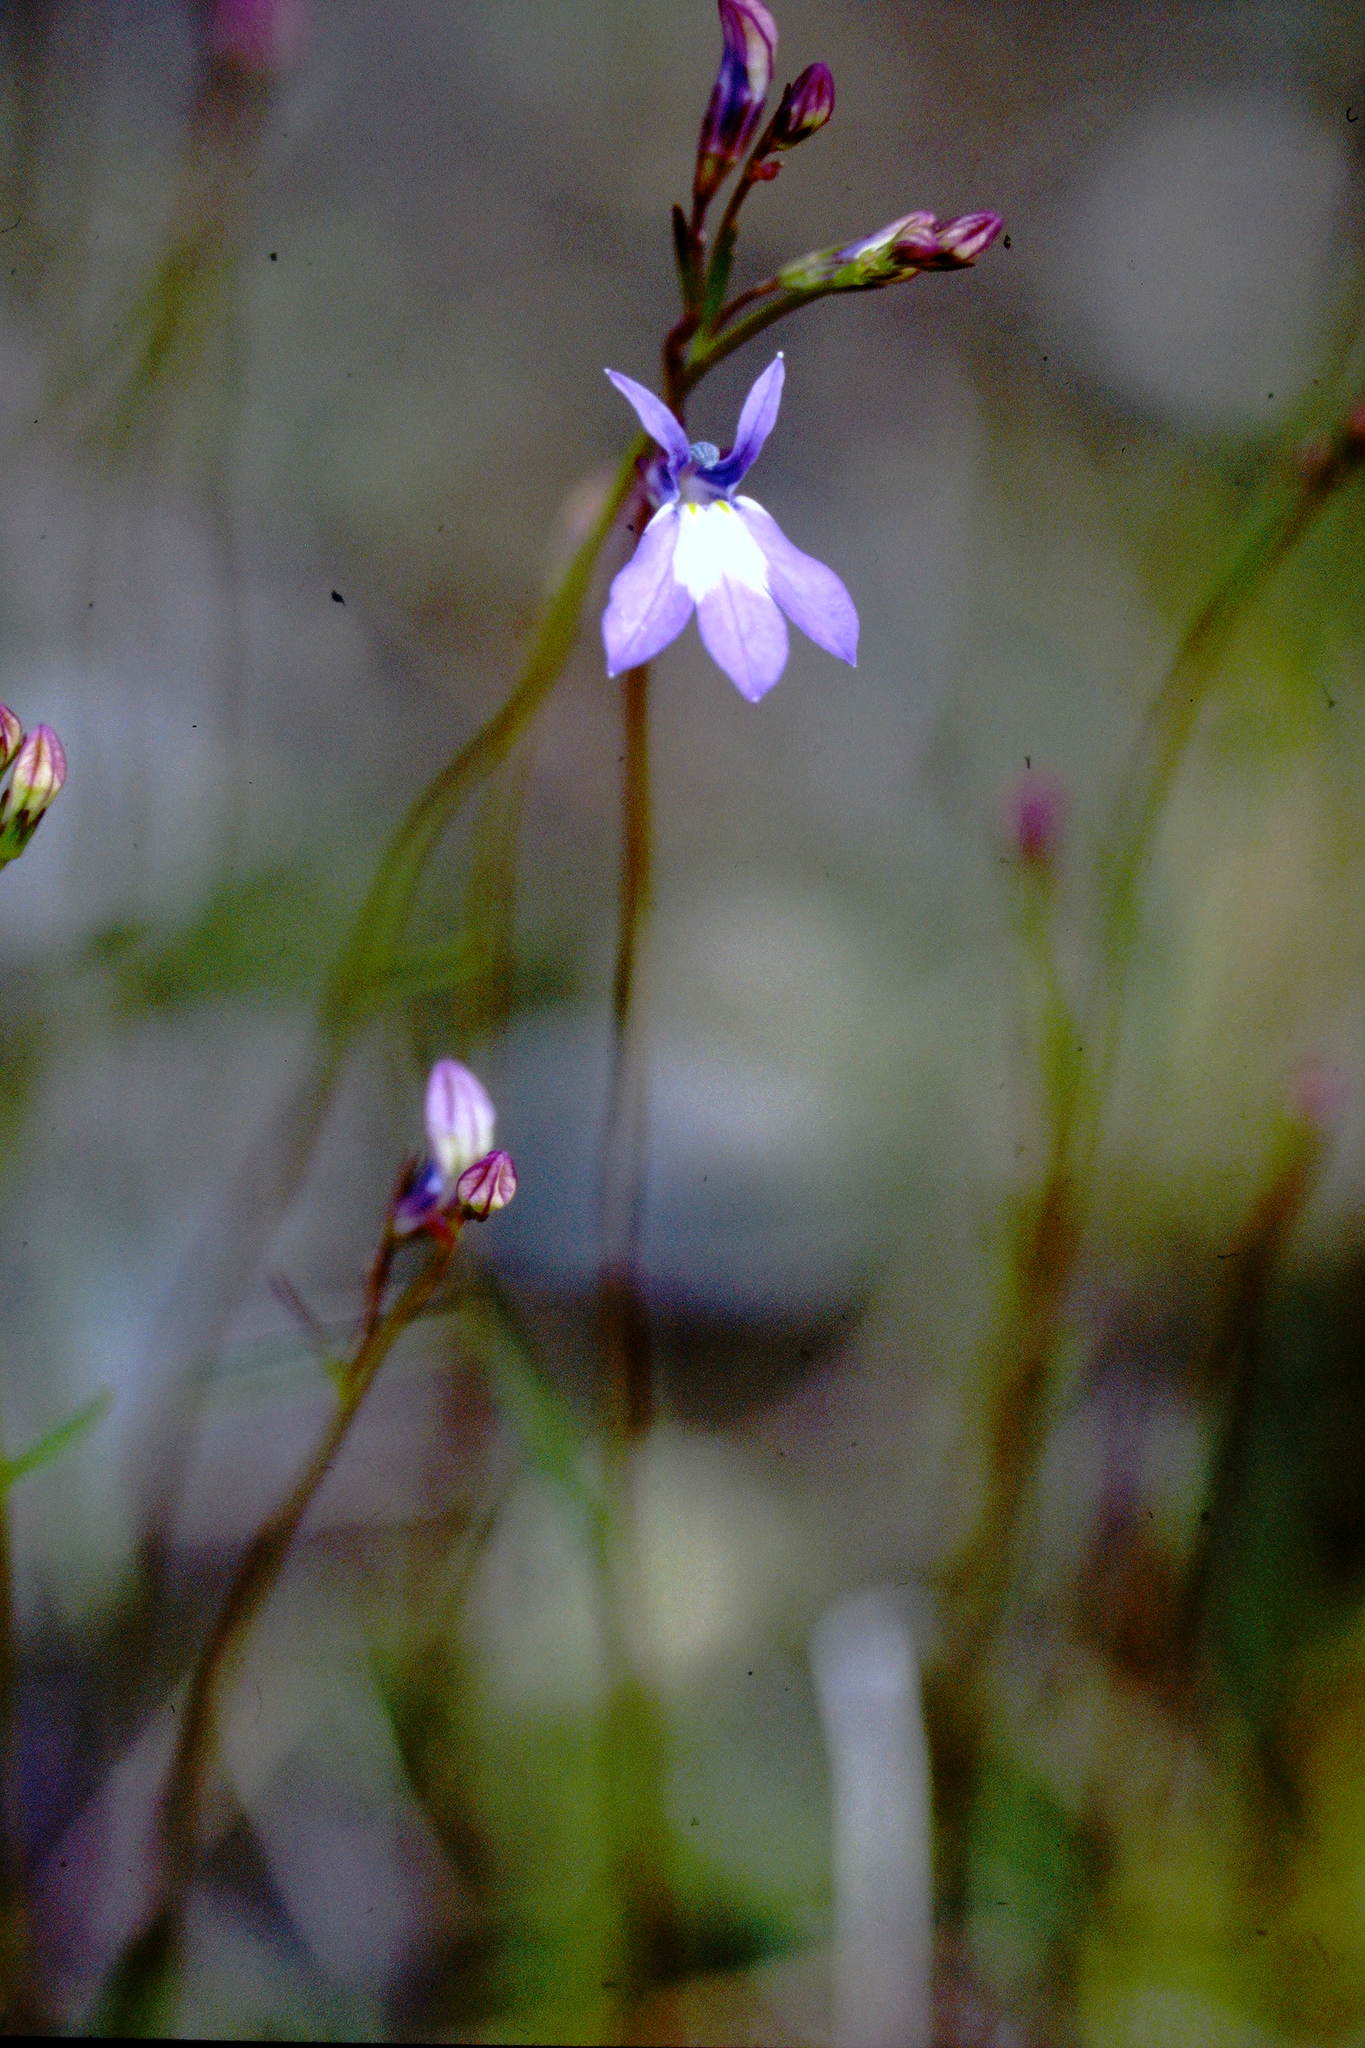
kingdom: Plantae
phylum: Tracheophyta
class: Magnoliopsida
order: Asterales
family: Campanulaceae
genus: Lobelia
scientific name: Lobelia kalmii
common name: Kalm's lobelia
